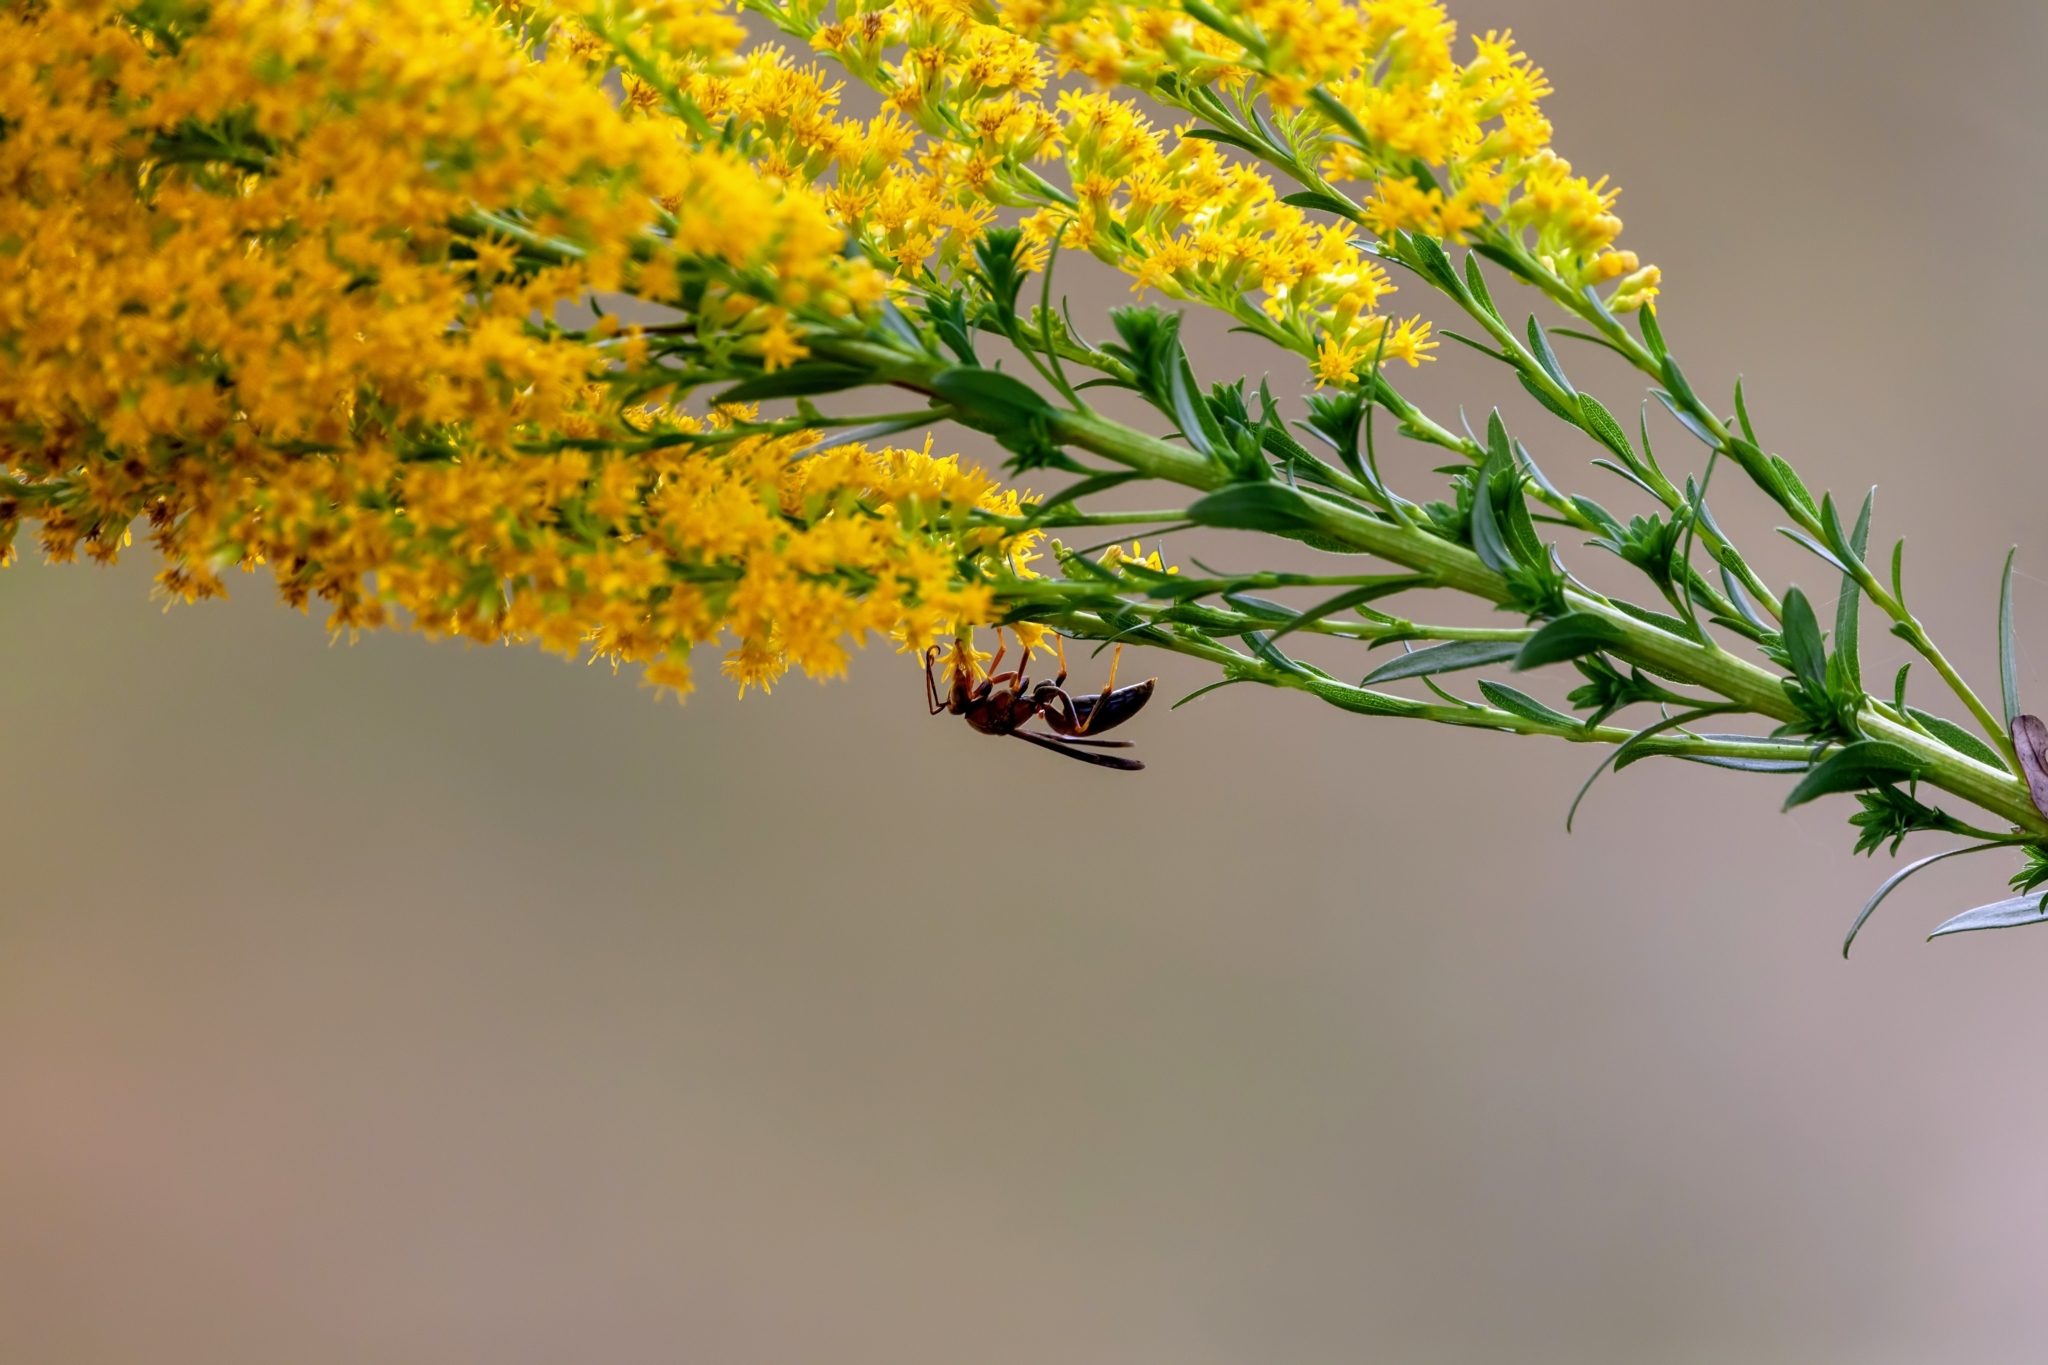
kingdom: Animalia
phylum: Arthropoda
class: Insecta
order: Hymenoptera
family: Eumenidae
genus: Polistes
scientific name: Polistes metricus
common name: Metric paper wasp
